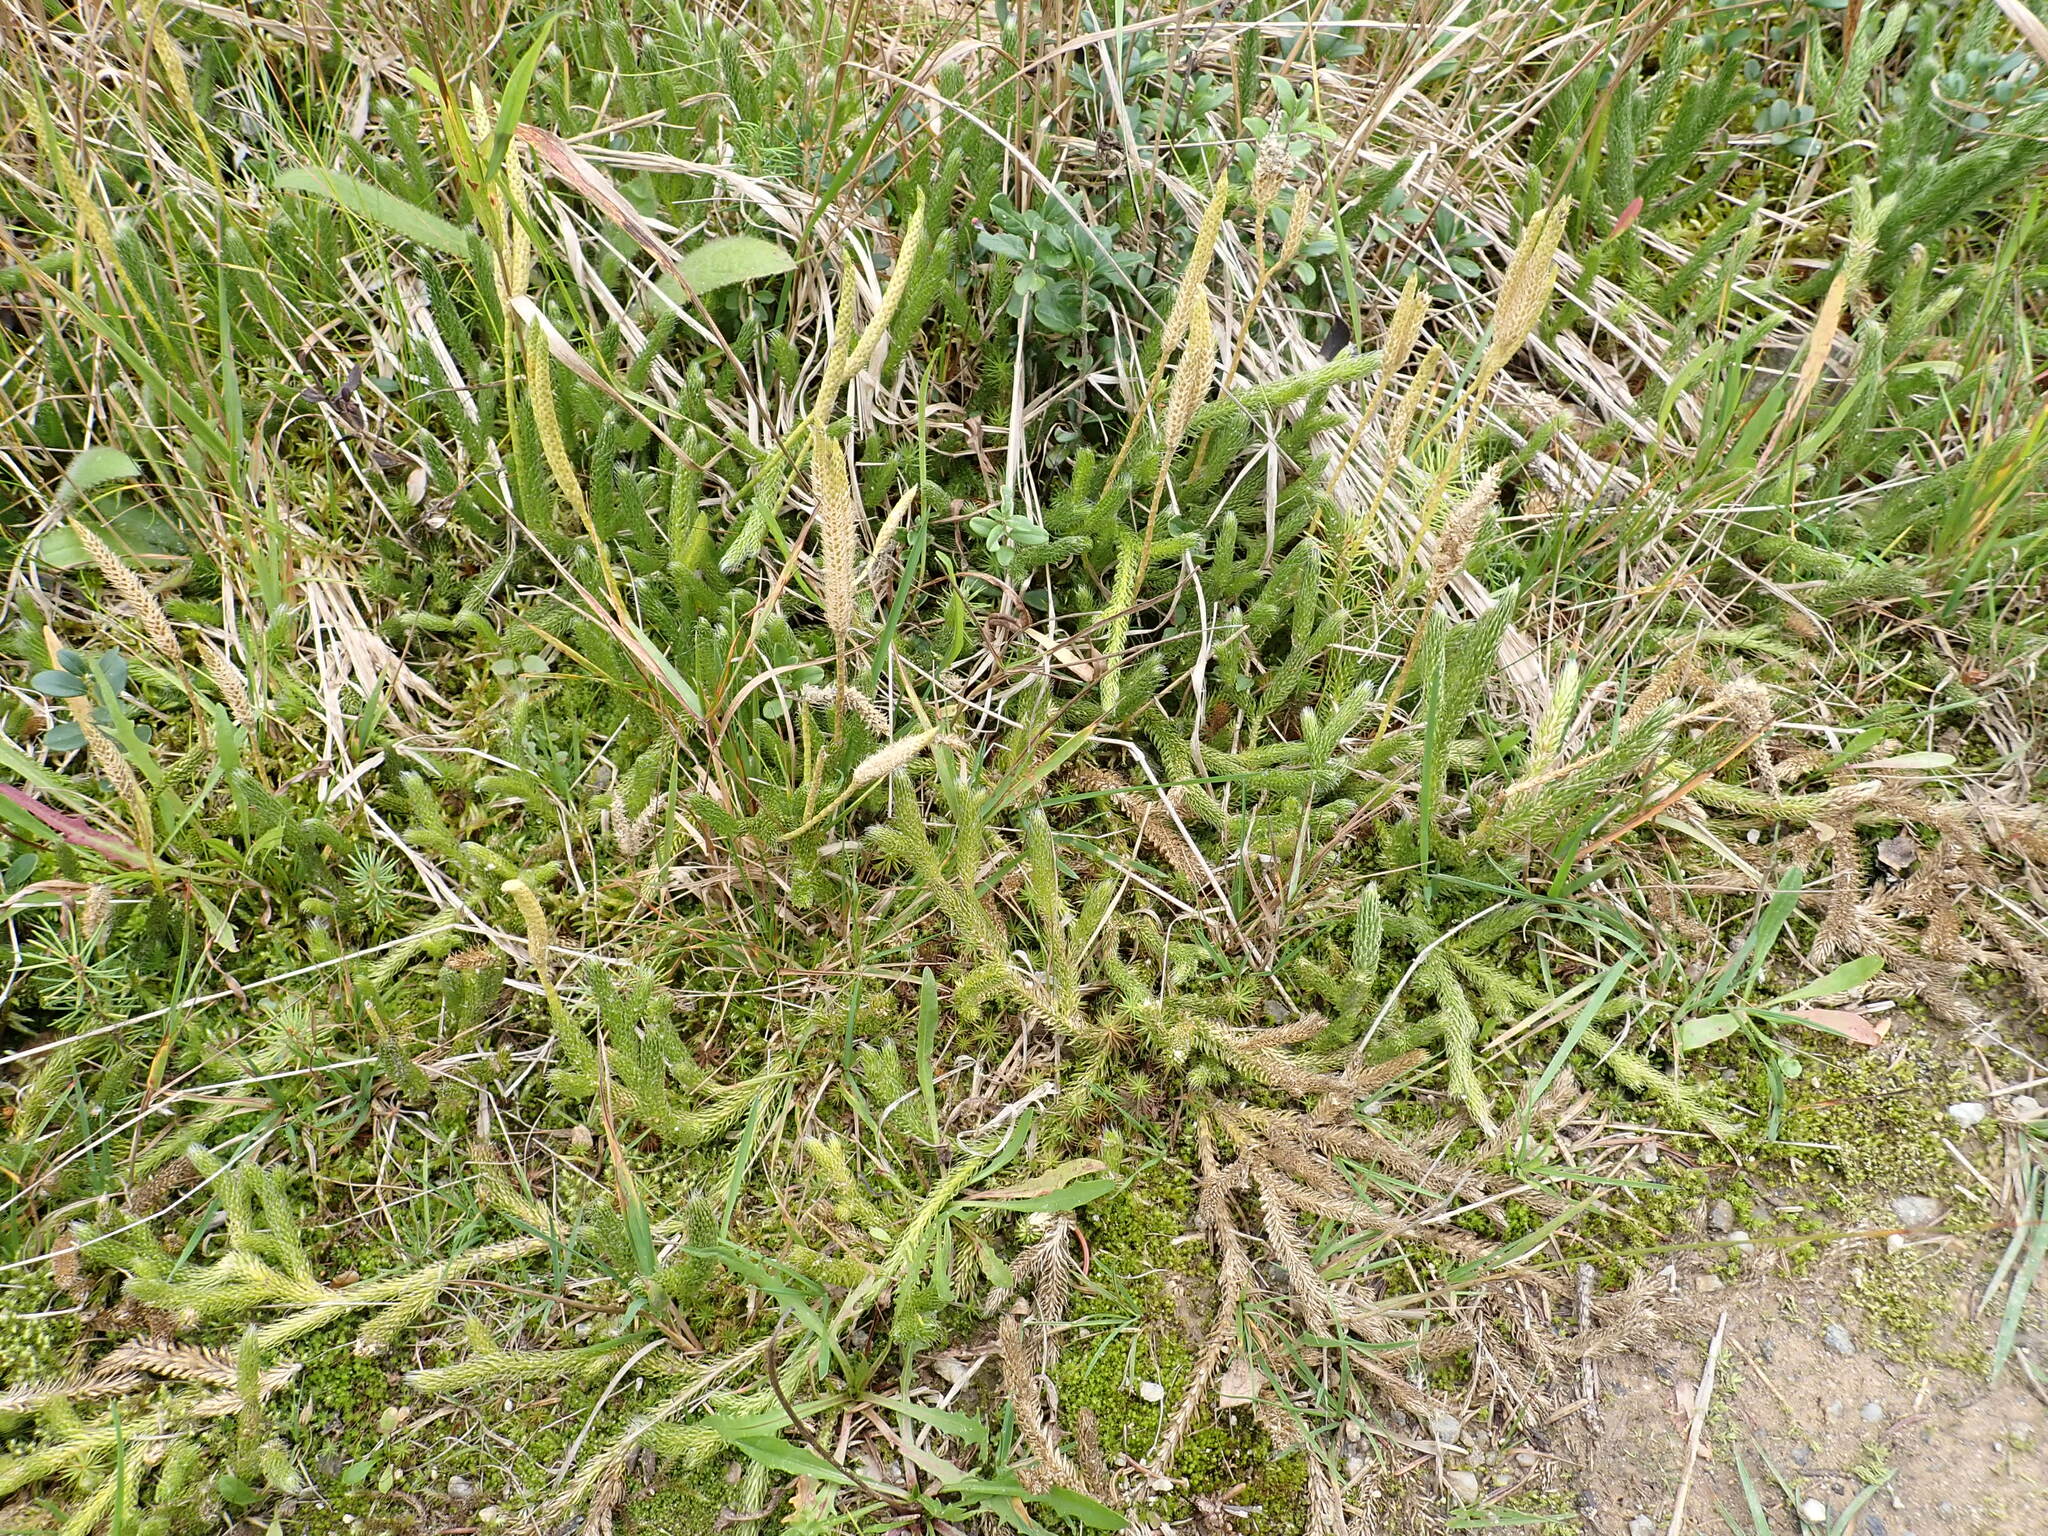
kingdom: Plantae
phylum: Tracheophyta
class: Lycopodiopsida
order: Lycopodiales
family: Lycopodiaceae
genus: Lycopodium
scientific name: Lycopodium clavatum
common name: Stag's-horn clubmoss
